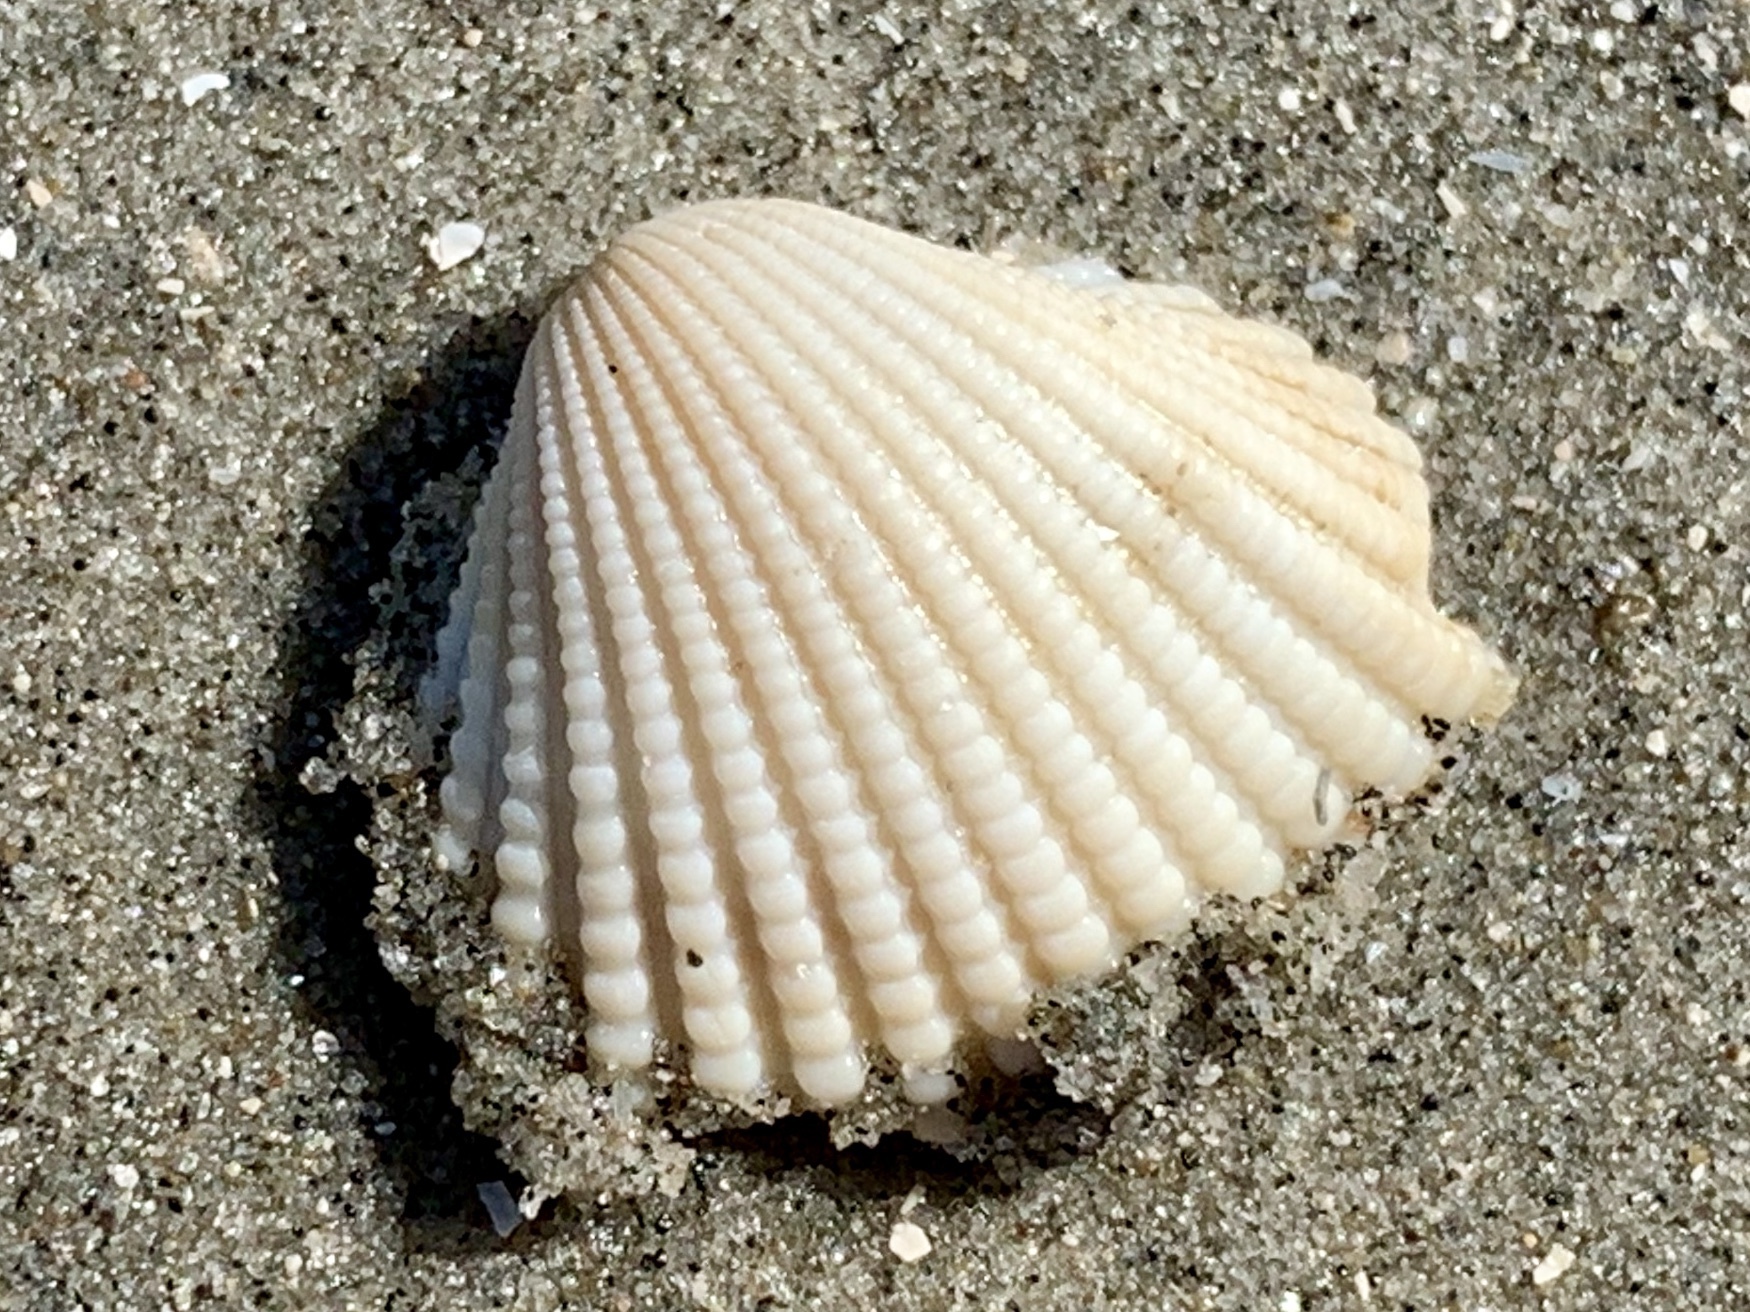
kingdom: Animalia
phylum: Mollusca
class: Bivalvia
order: Arcida
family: Arcidae
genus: Anadara
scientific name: Anadara brasiliana
